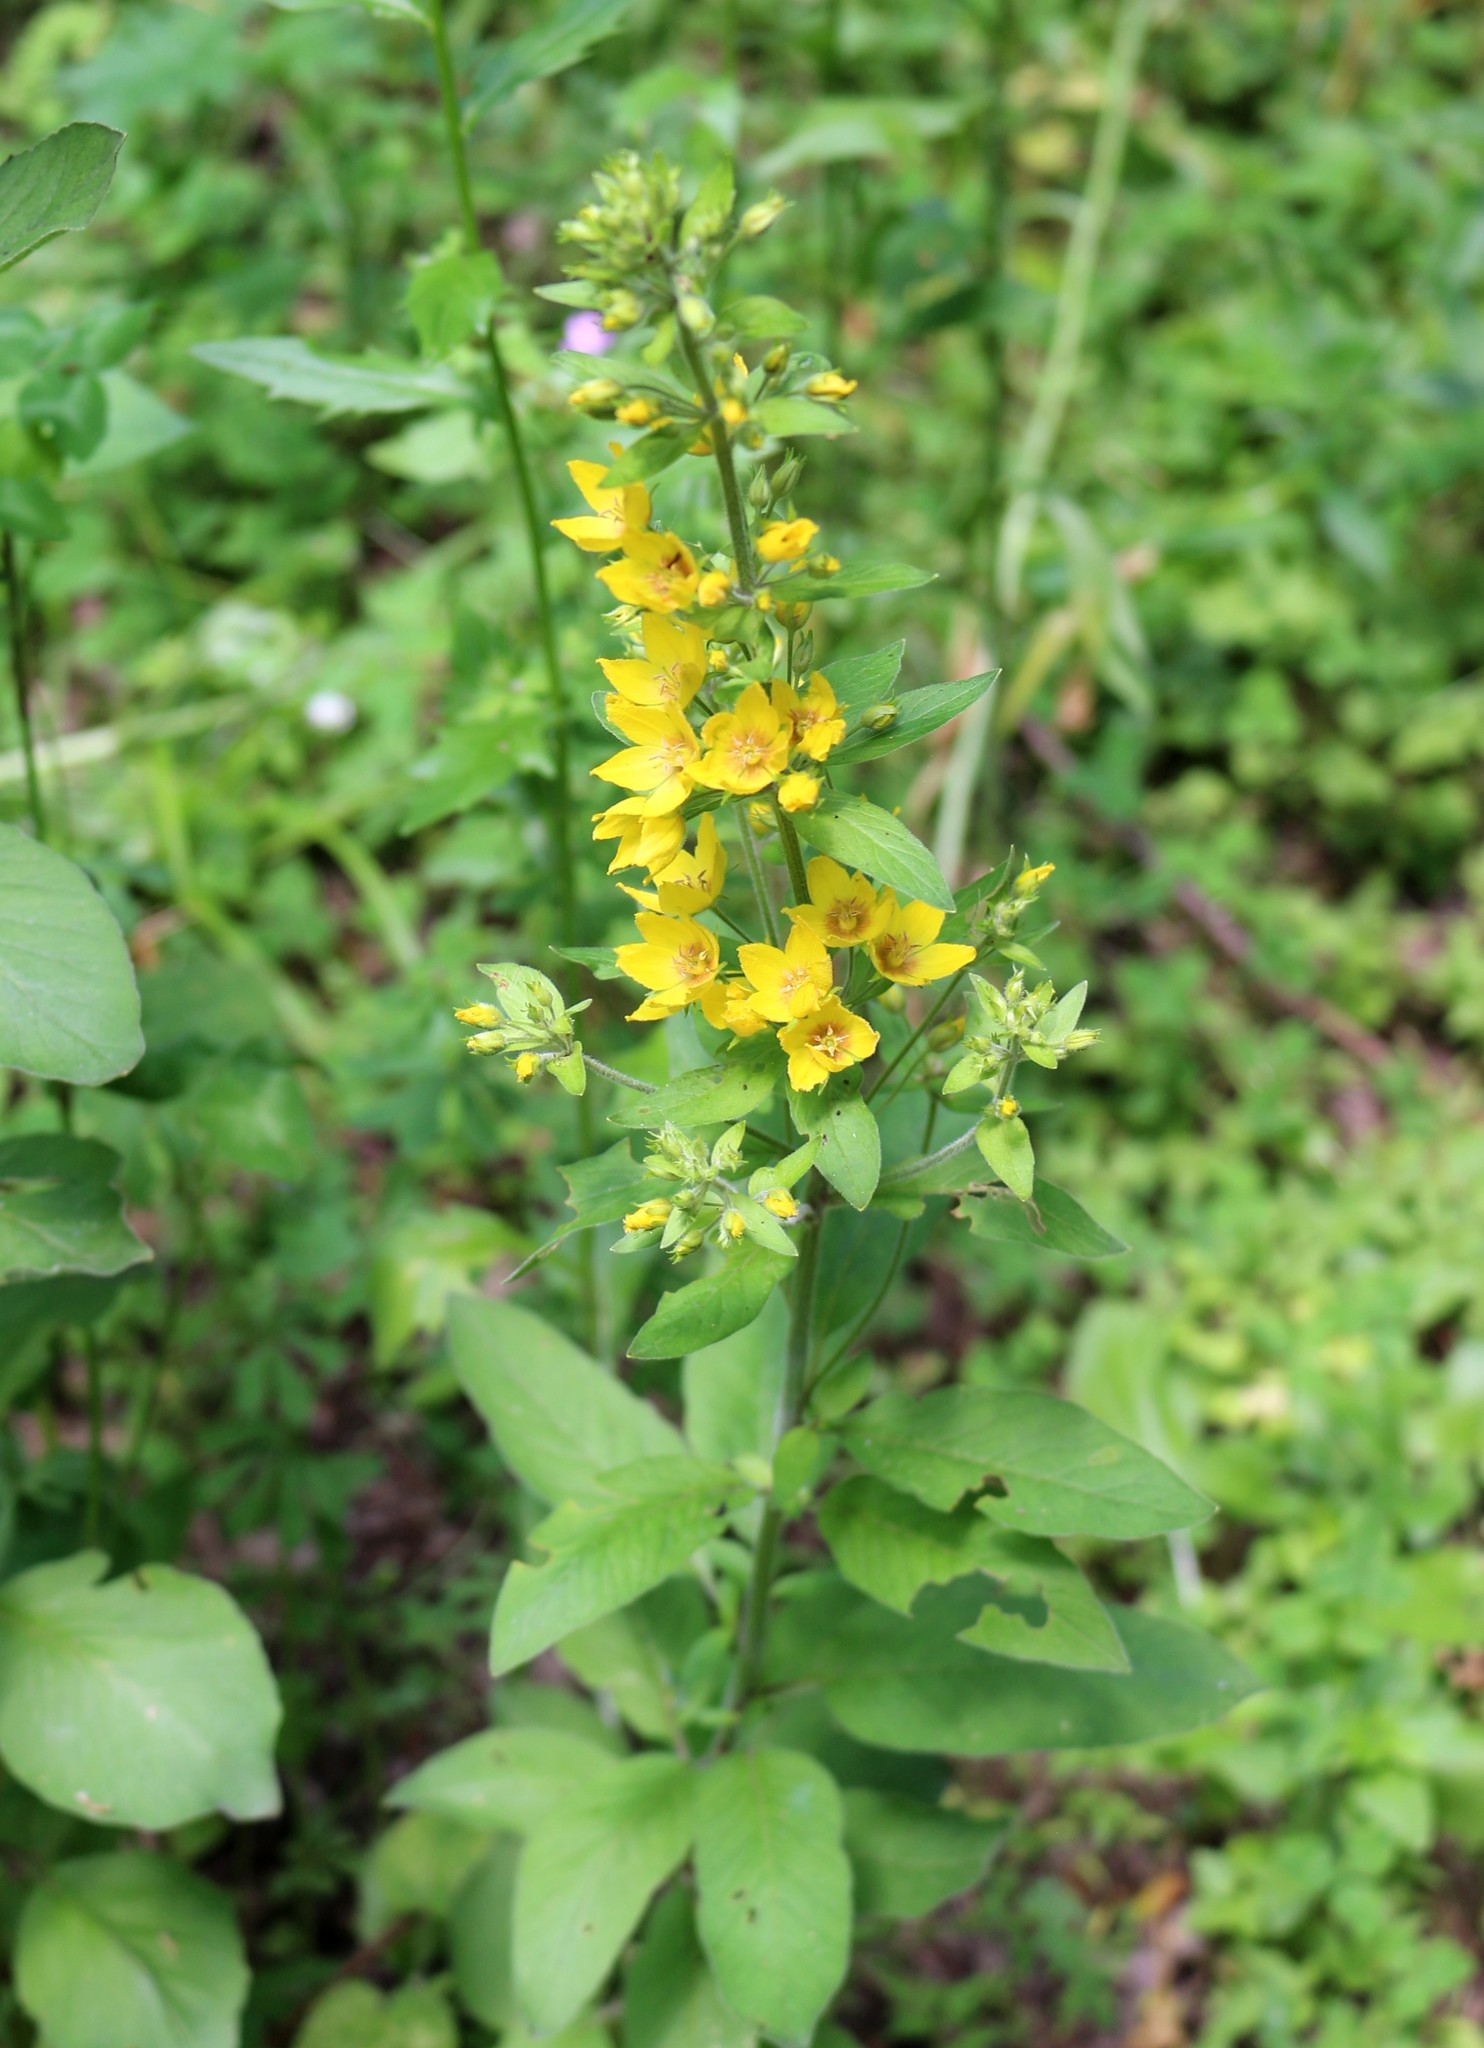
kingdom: Plantae
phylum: Tracheophyta
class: Magnoliopsida
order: Ericales
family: Primulaceae
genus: Lysimachia
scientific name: Lysimachia verticillaris
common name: Yellow loosestrife
